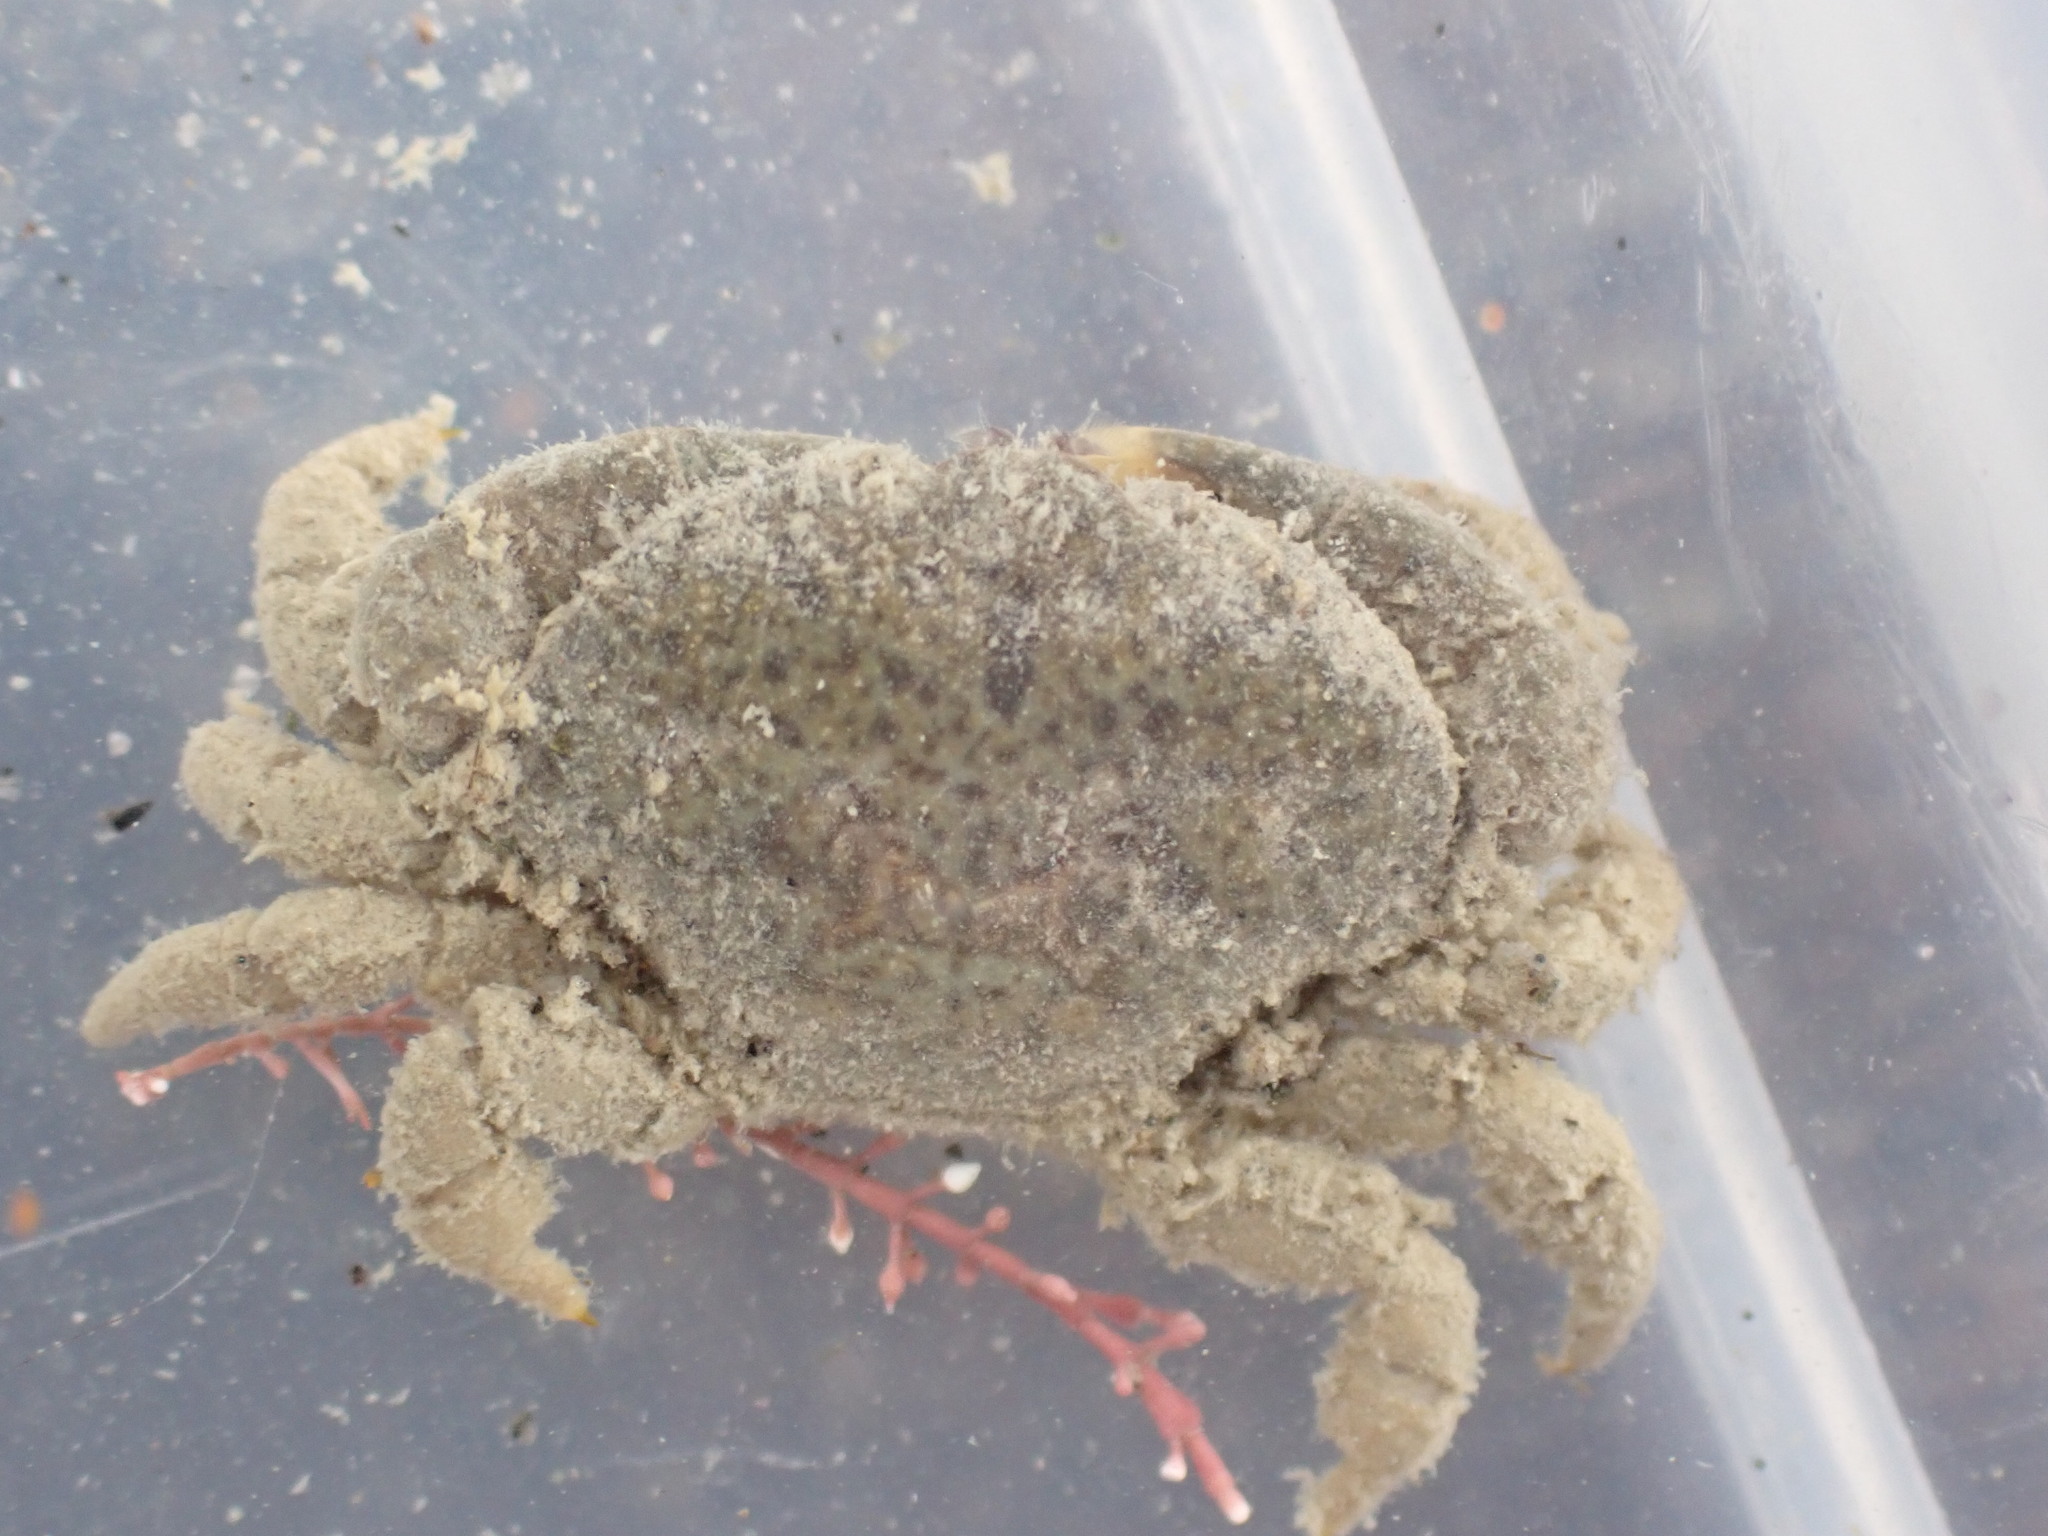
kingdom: Animalia
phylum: Arthropoda
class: Malacostraca
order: Decapoda
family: Heteroziidae
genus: Heterozius
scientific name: Heterozius rotundifrons
